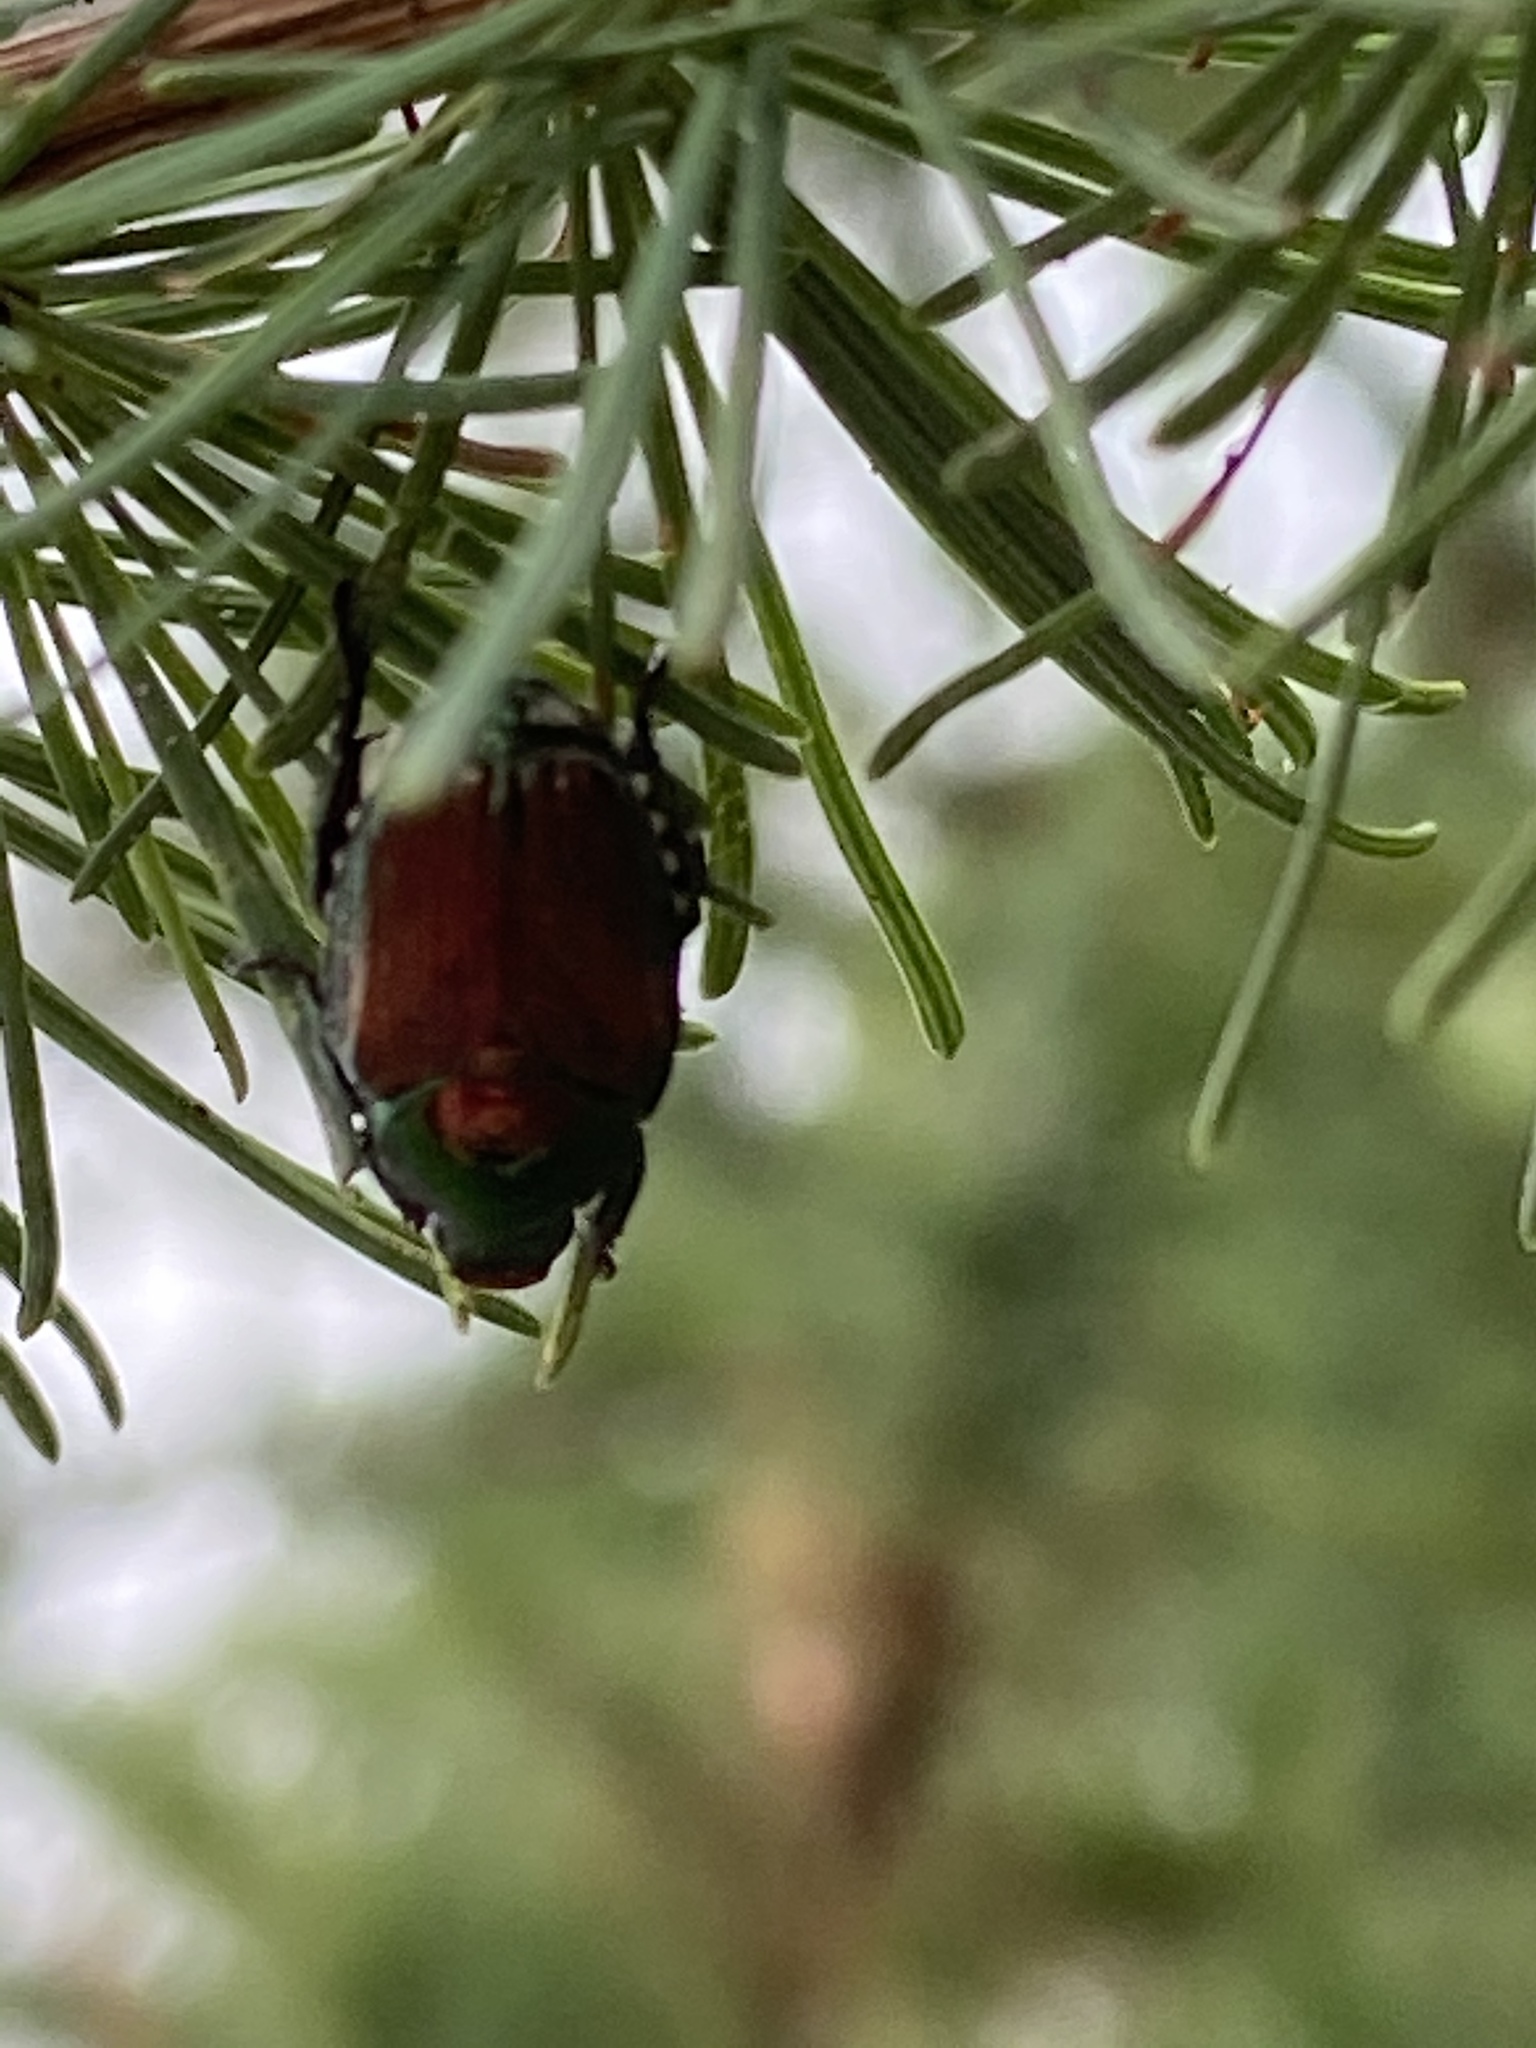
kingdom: Animalia
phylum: Arthropoda
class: Insecta
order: Coleoptera
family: Scarabaeidae
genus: Popillia
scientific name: Popillia japonica
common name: Japanese beetle
